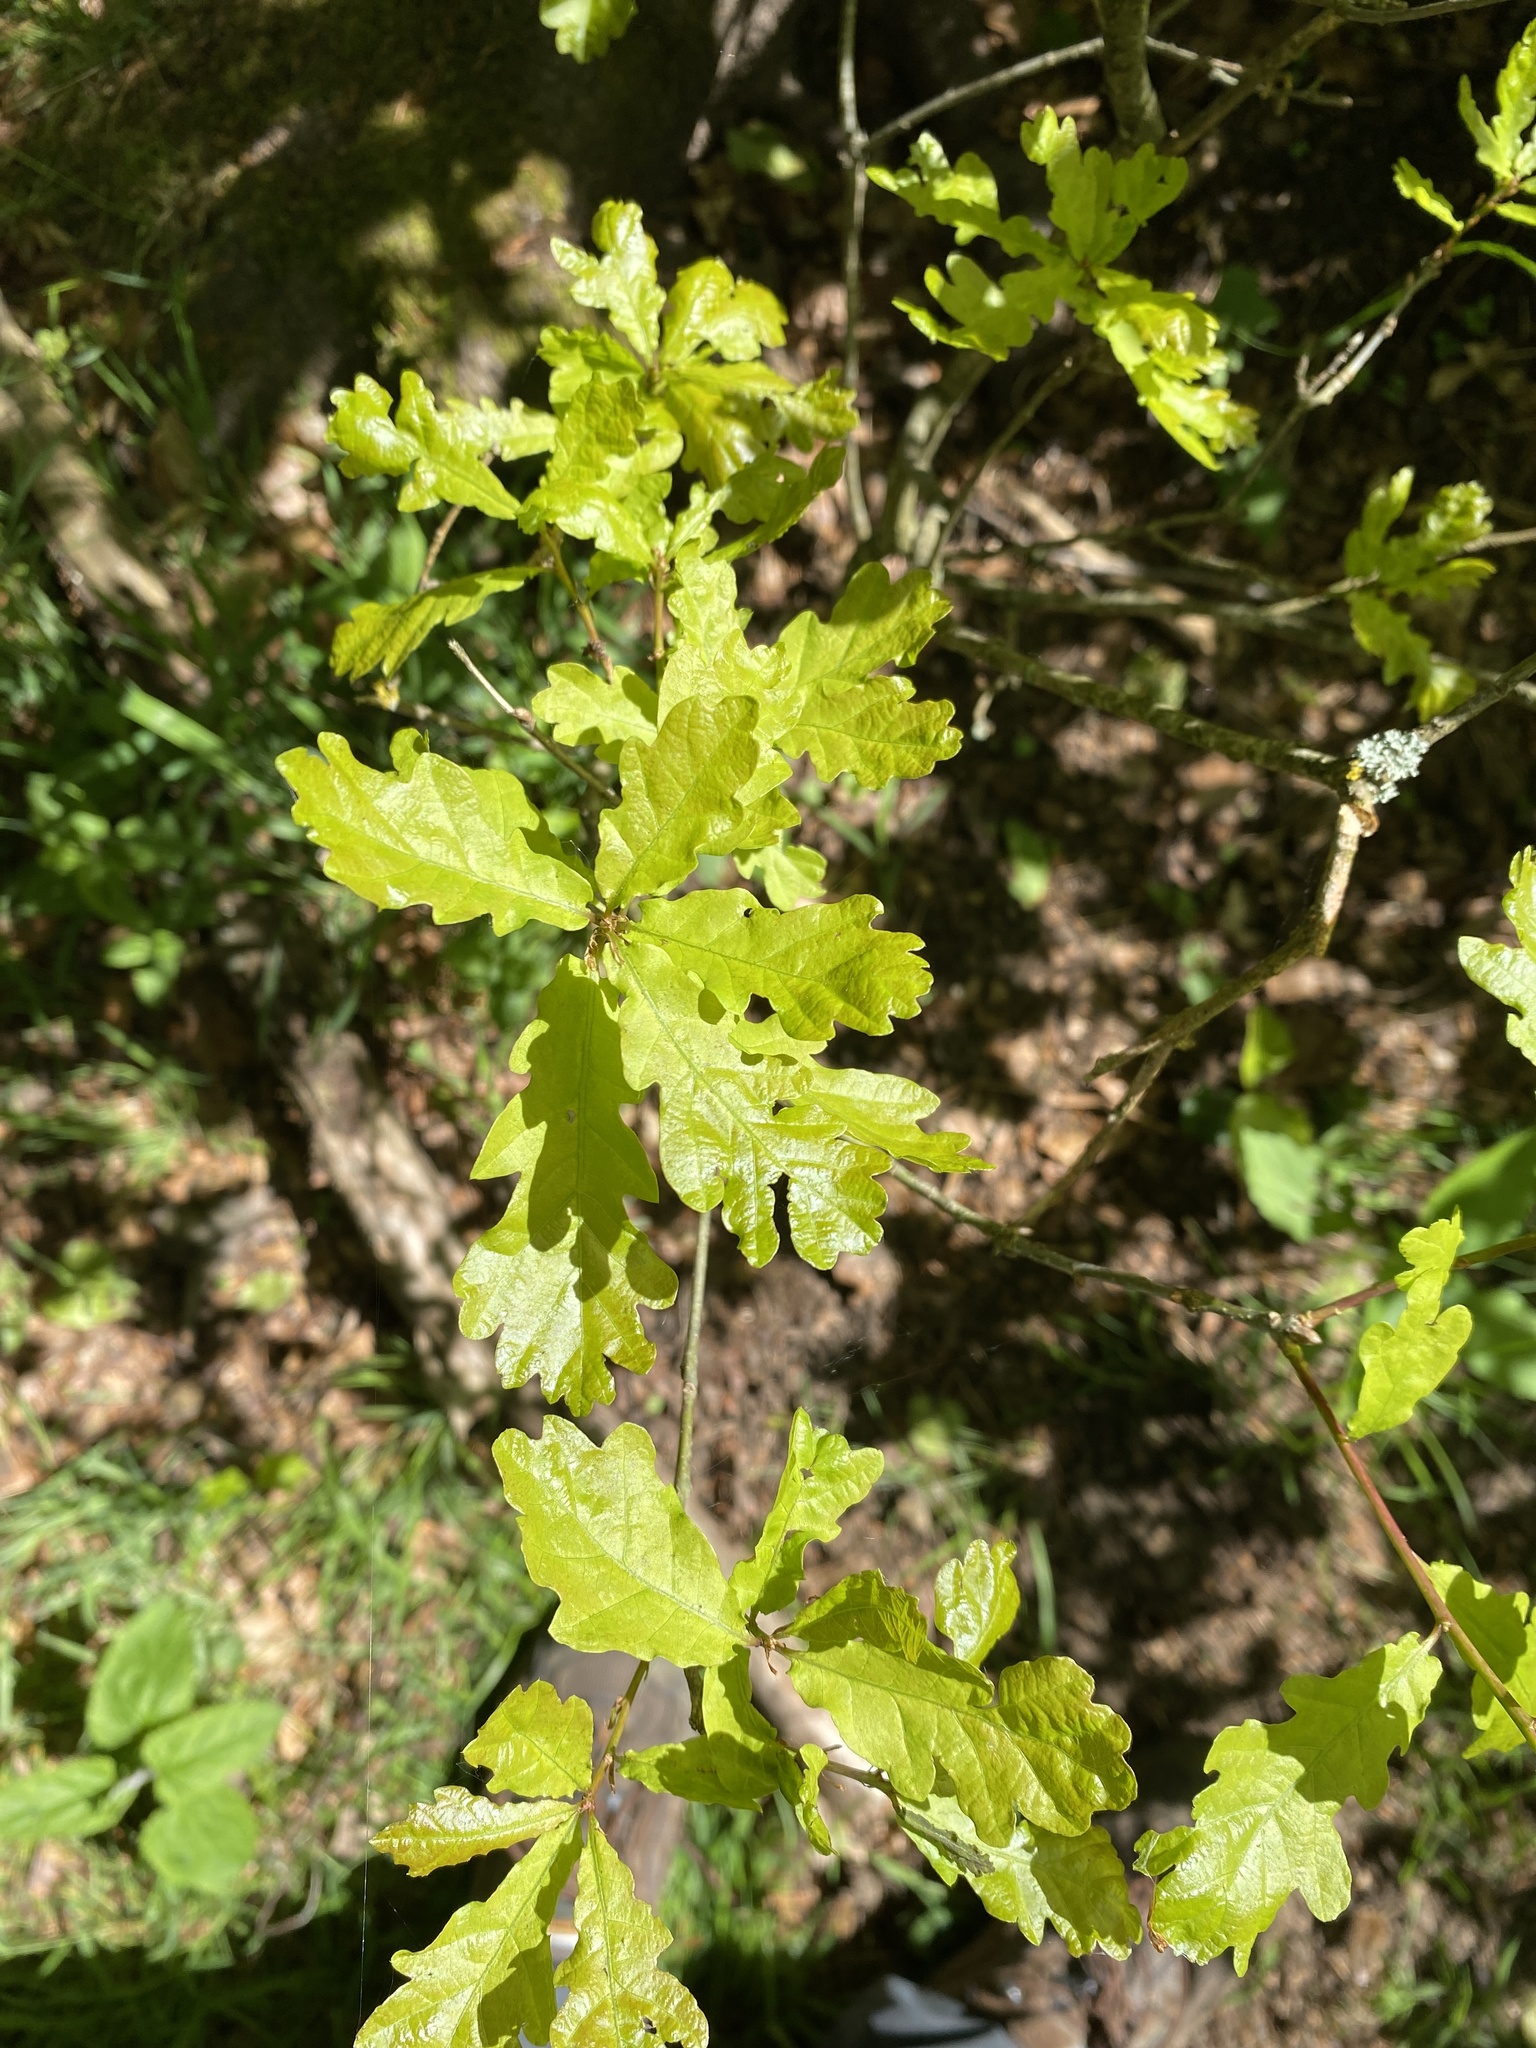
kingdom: Plantae
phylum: Tracheophyta
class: Magnoliopsida
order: Fagales
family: Fagaceae
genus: Quercus
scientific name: Quercus robur
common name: Pedunculate oak
